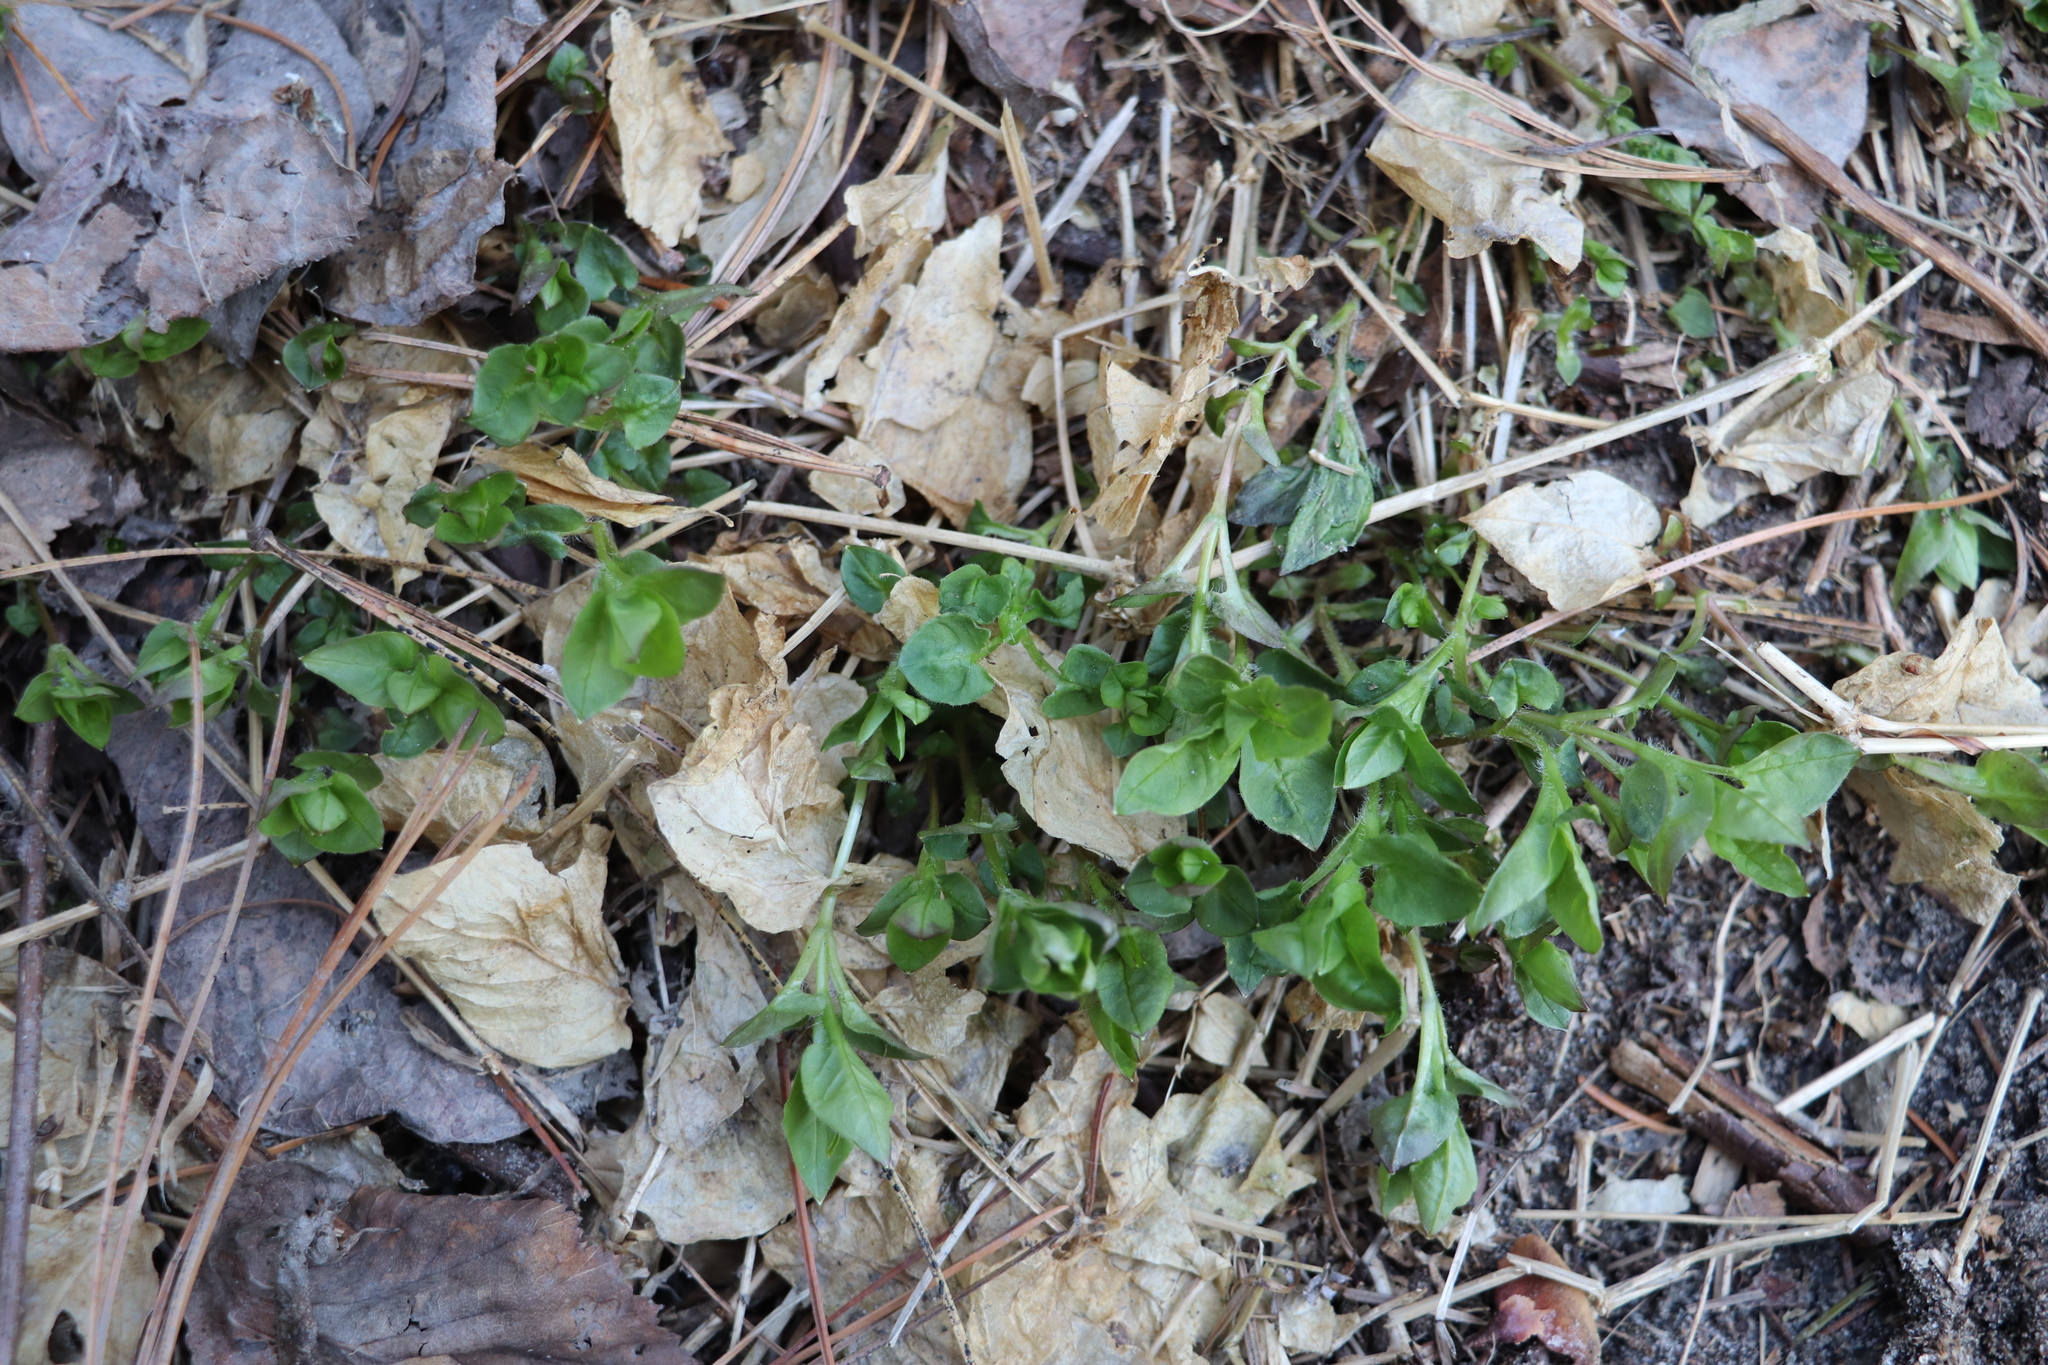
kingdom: Plantae
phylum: Tracheophyta
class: Magnoliopsida
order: Caryophyllales
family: Caryophyllaceae
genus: Stellaria
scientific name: Stellaria bungeana
